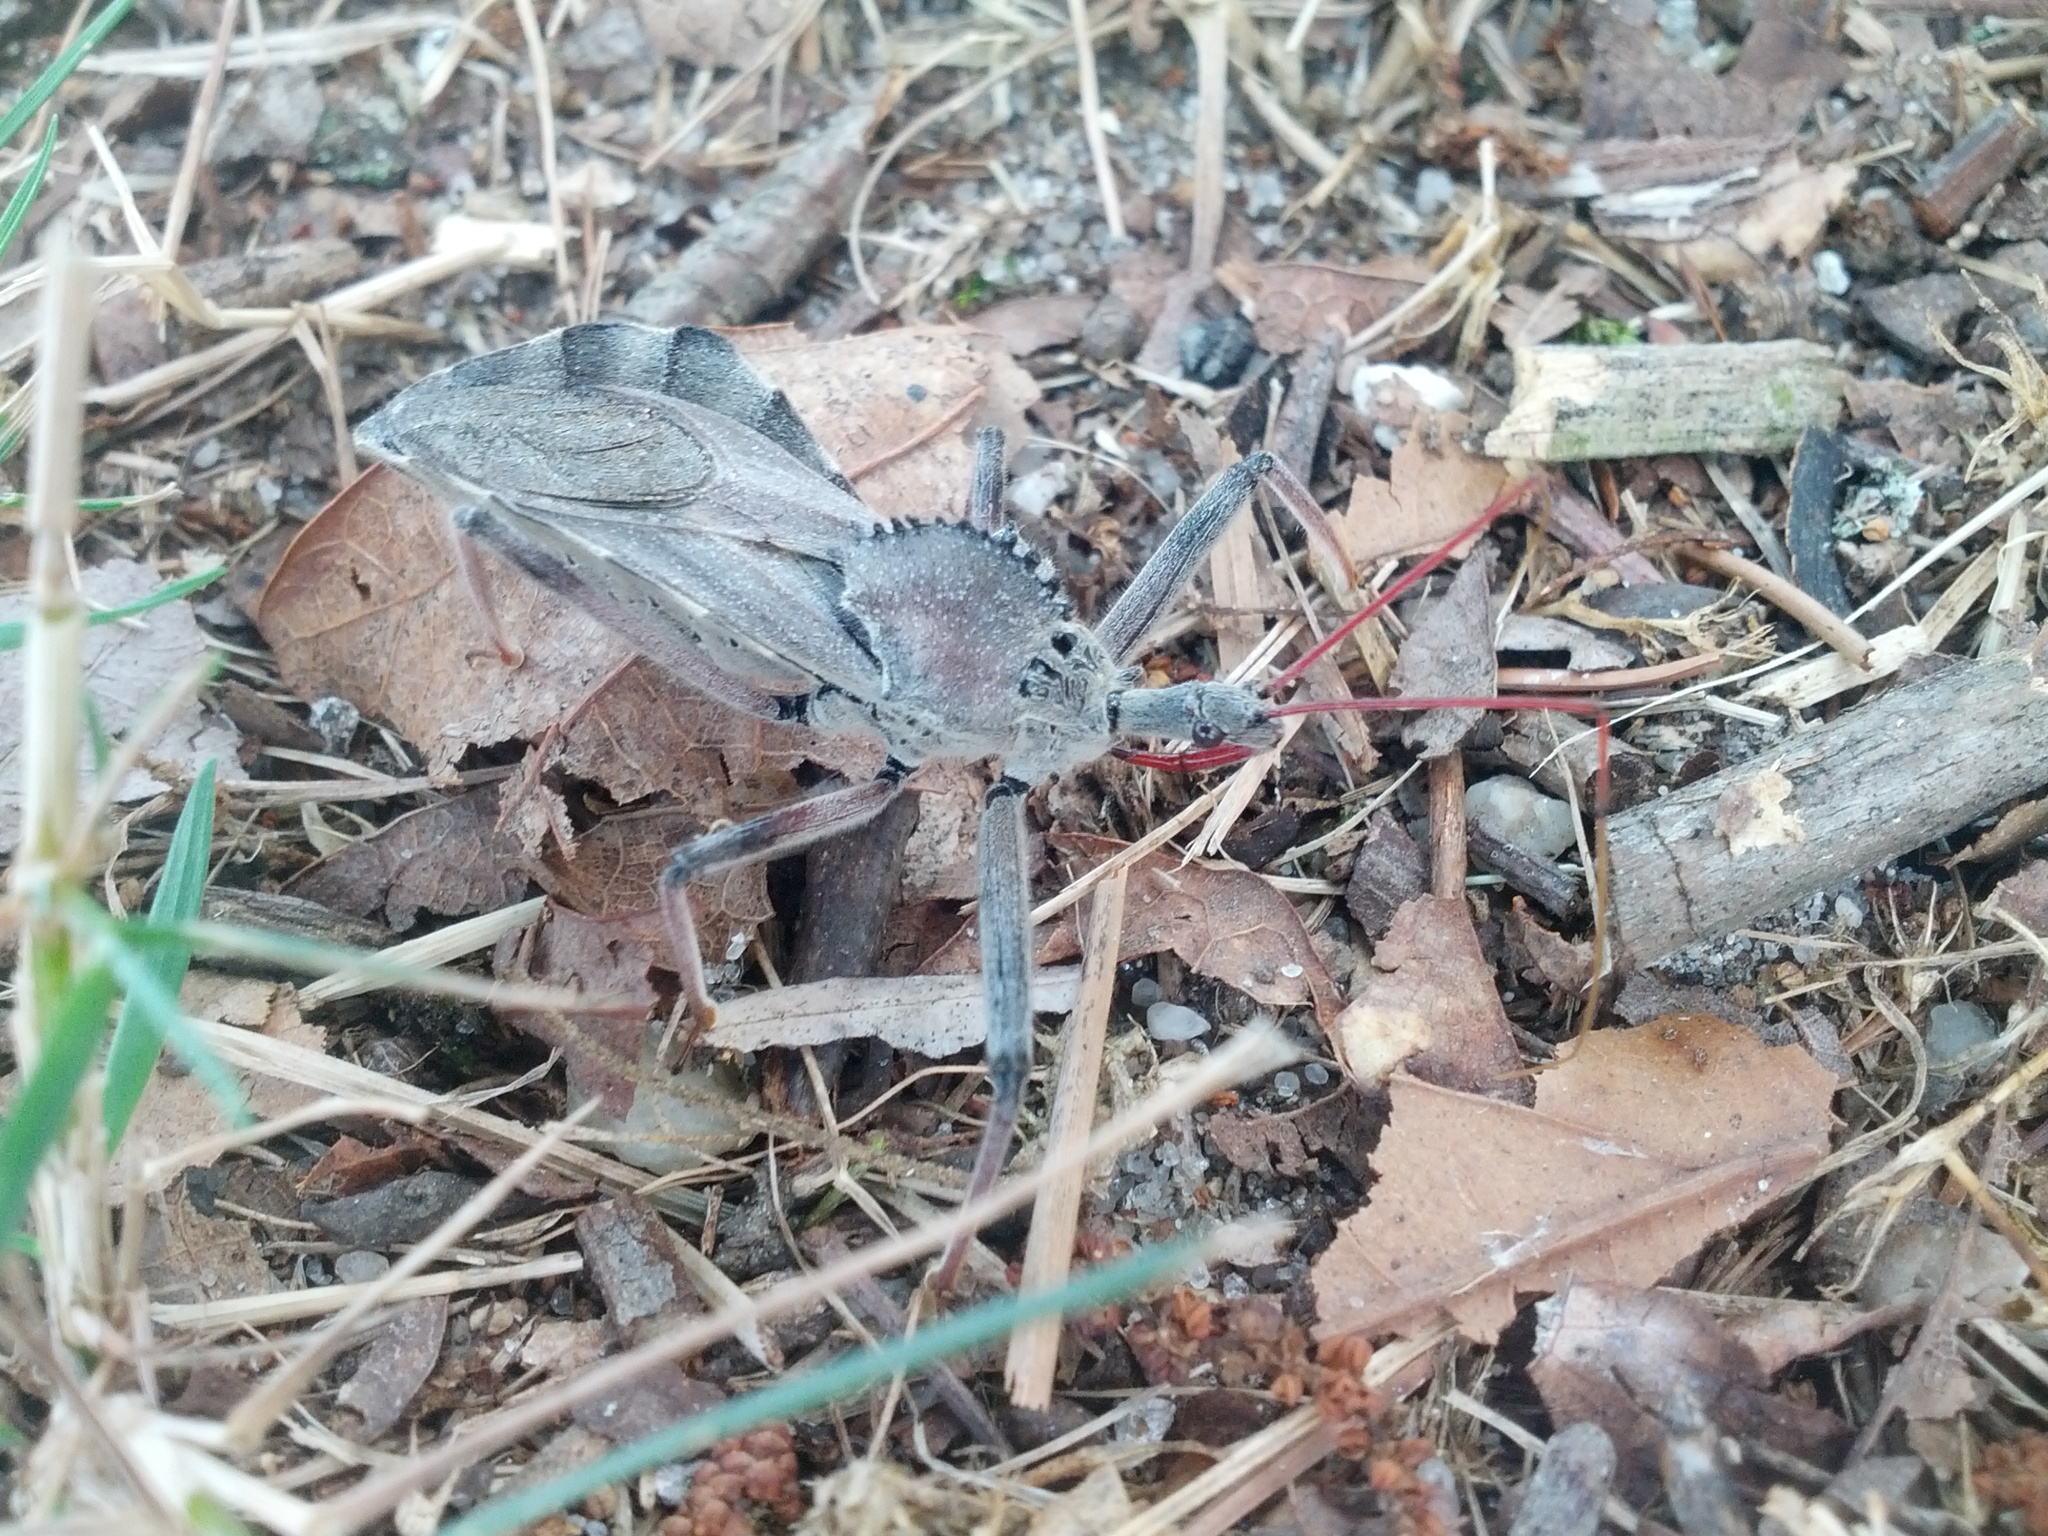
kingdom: Animalia
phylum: Arthropoda
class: Insecta
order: Hemiptera
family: Reduviidae
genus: Arilus
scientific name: Arilus cristatus
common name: North american wheel bug
